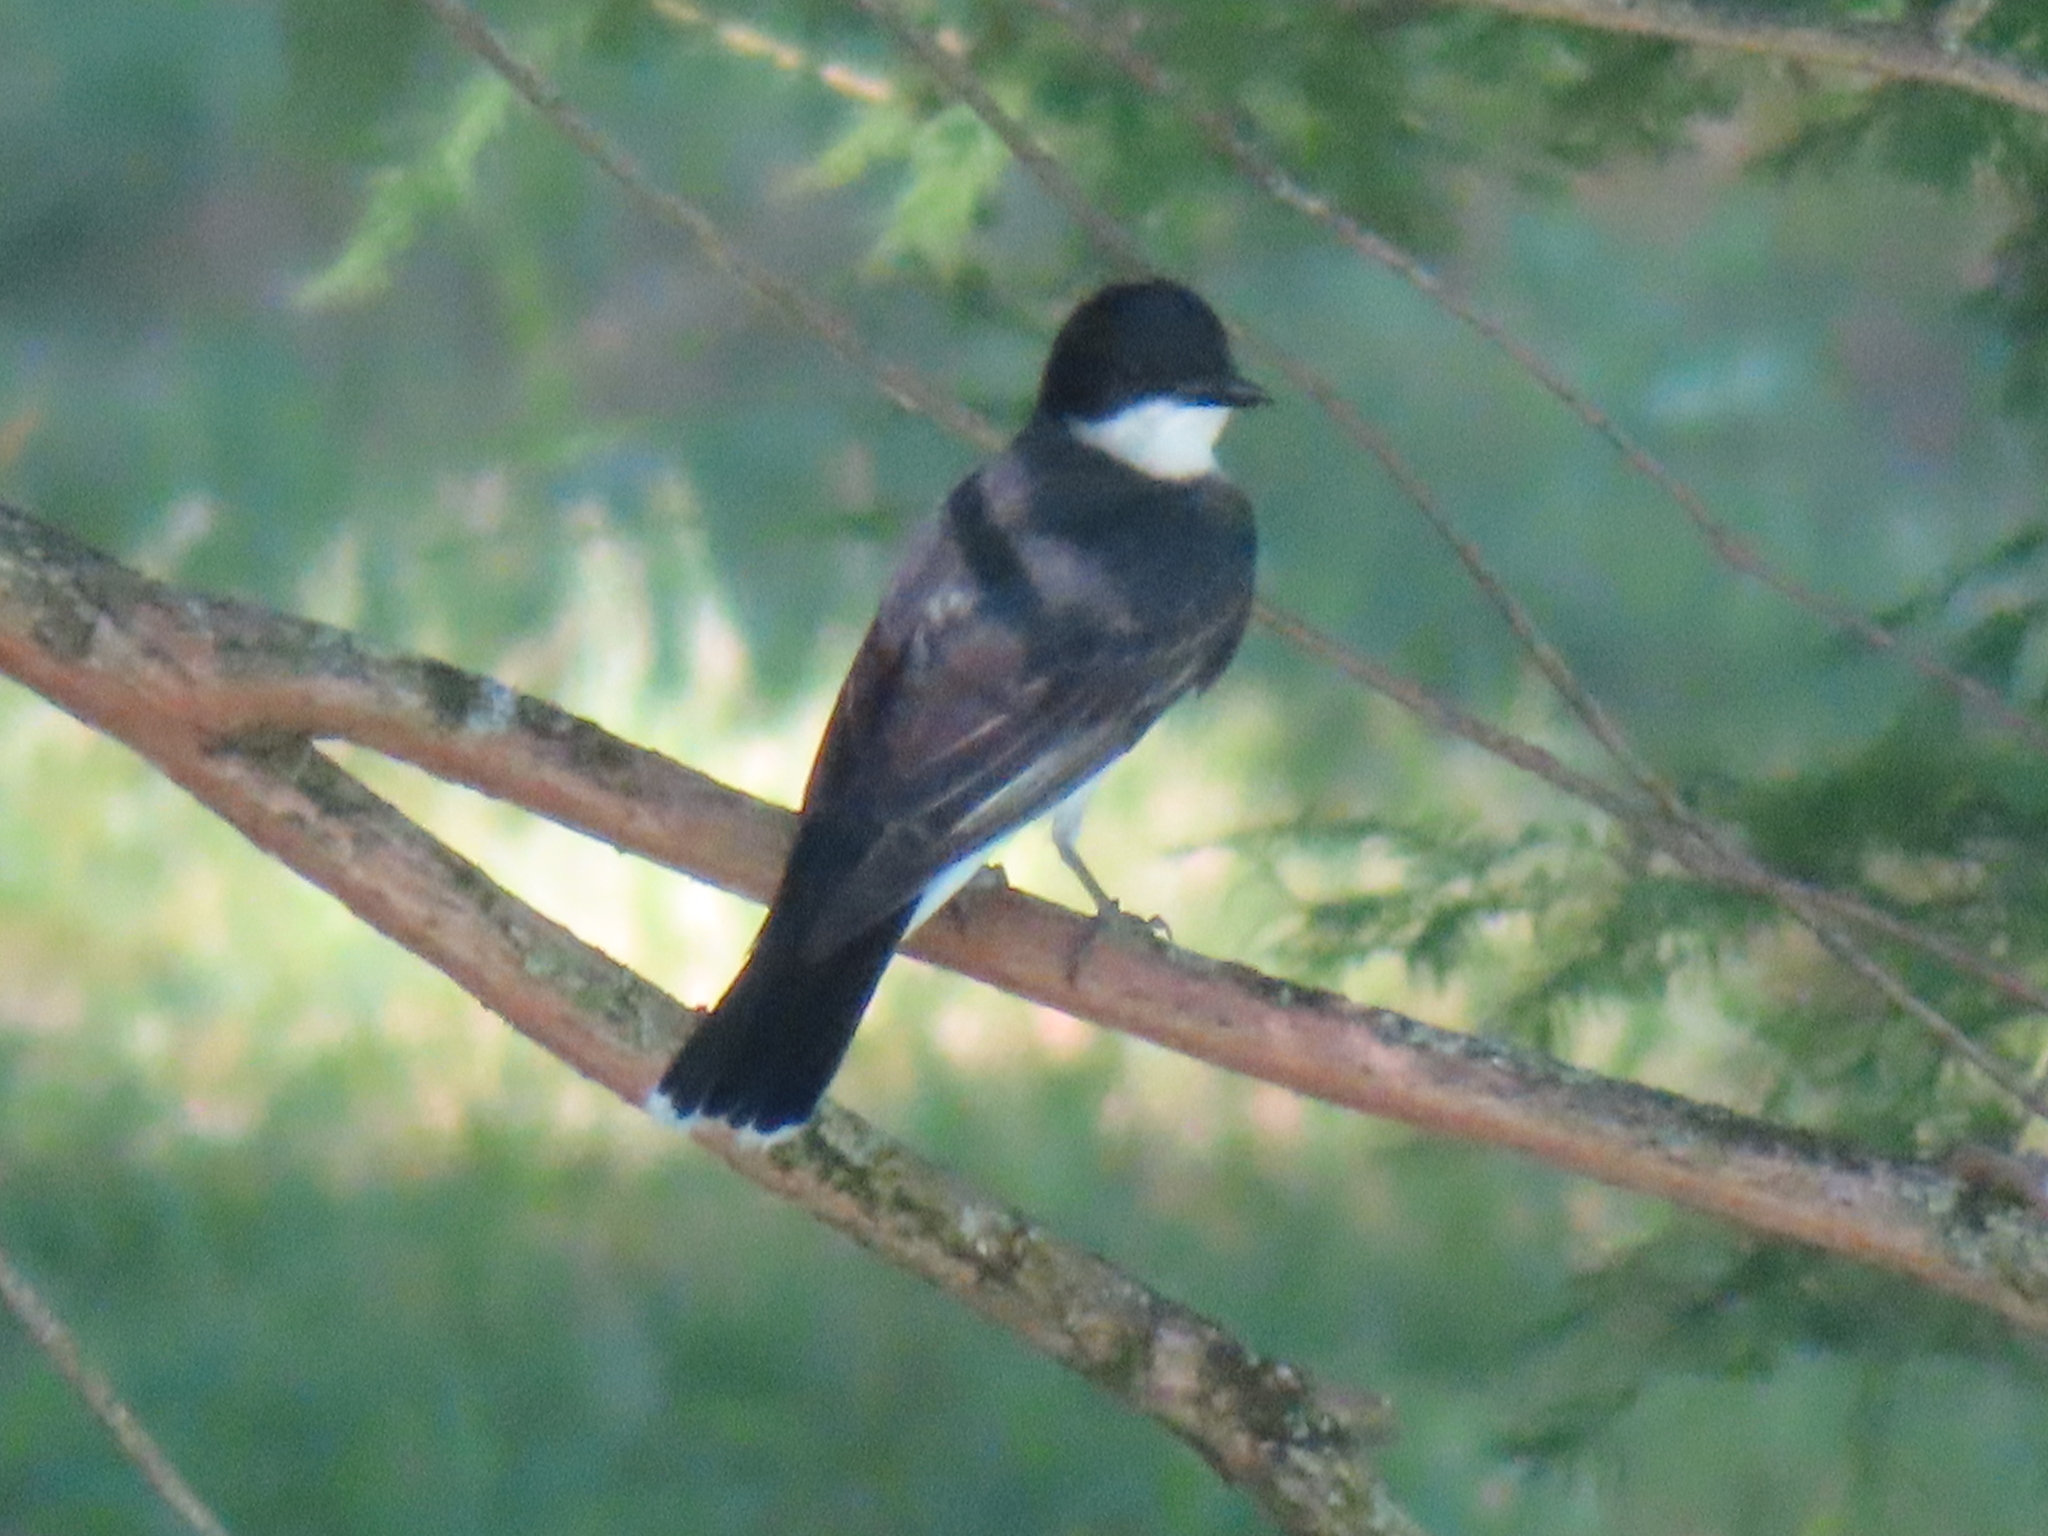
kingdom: Animalia
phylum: Chordata
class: Aves
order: Passeriformes
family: Tyrannidae
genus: Tyrannus
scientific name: Tyrannus tyrannus
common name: Eastern kingbird
